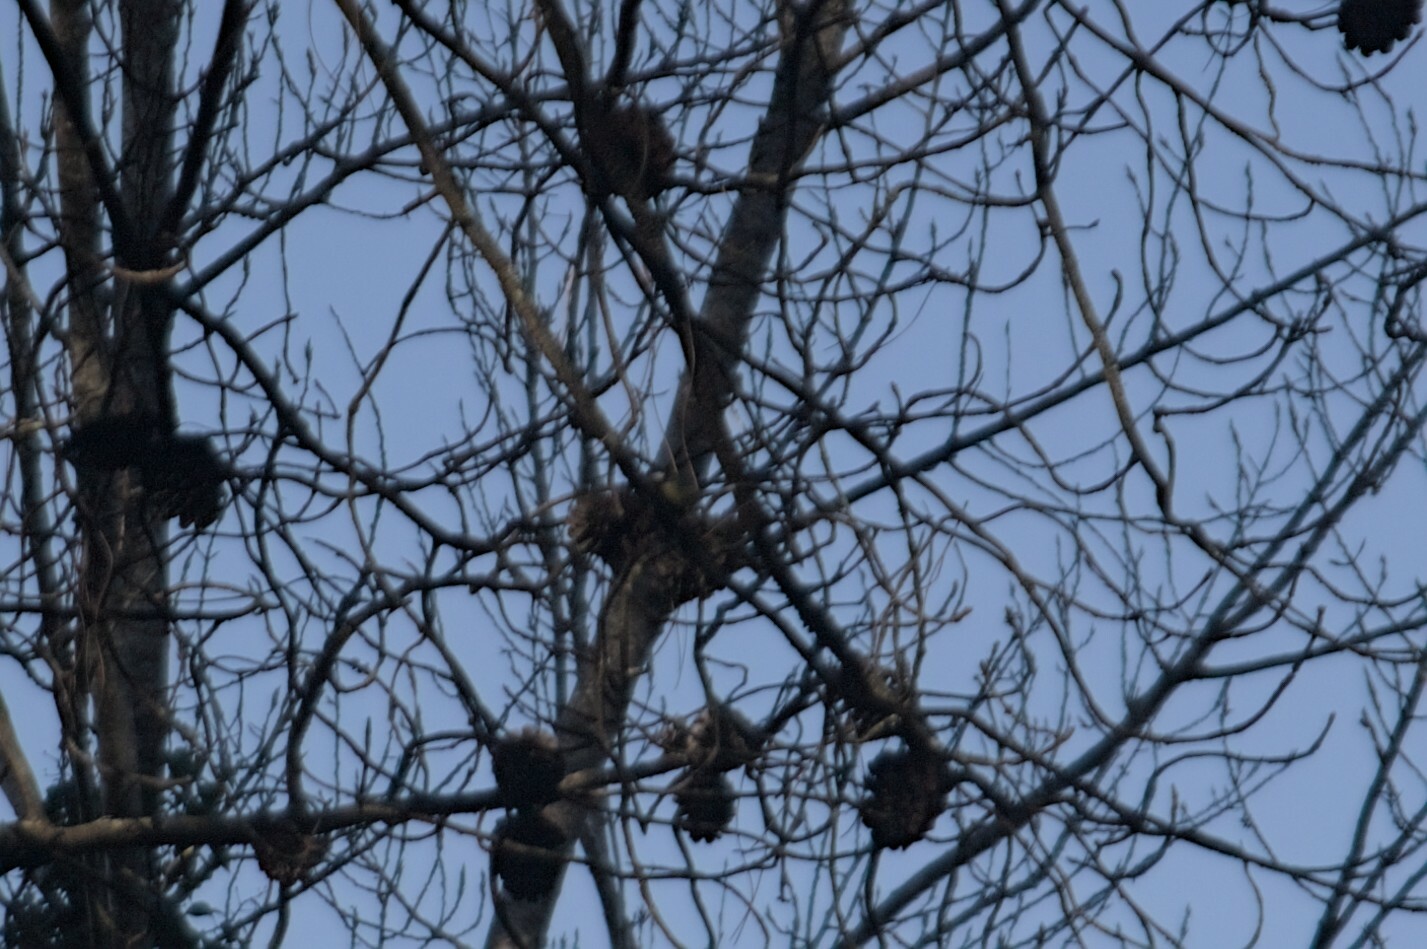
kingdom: Animalia
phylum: Chordata
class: Aves
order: Passeriformes
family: Paridae
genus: Parus
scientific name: Parus major
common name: Great tit
